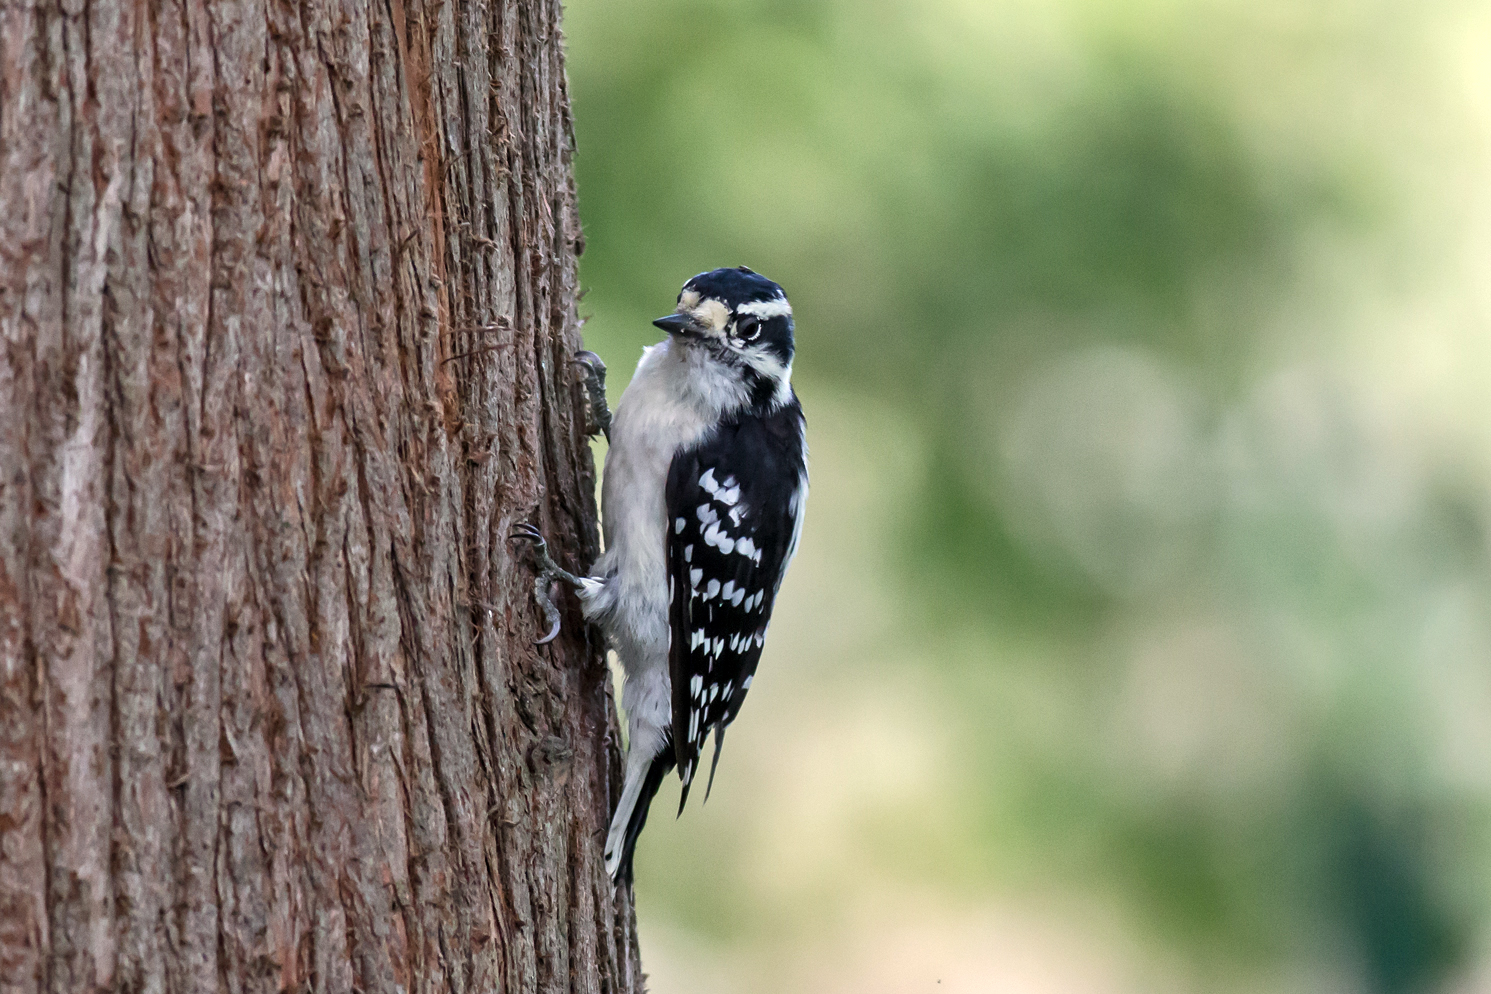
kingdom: Animalia
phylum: Chordata
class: Aves
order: Piciformes
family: Picidae
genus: Dryobates
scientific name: Dryobates pubescens
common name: Downy woodpecker
